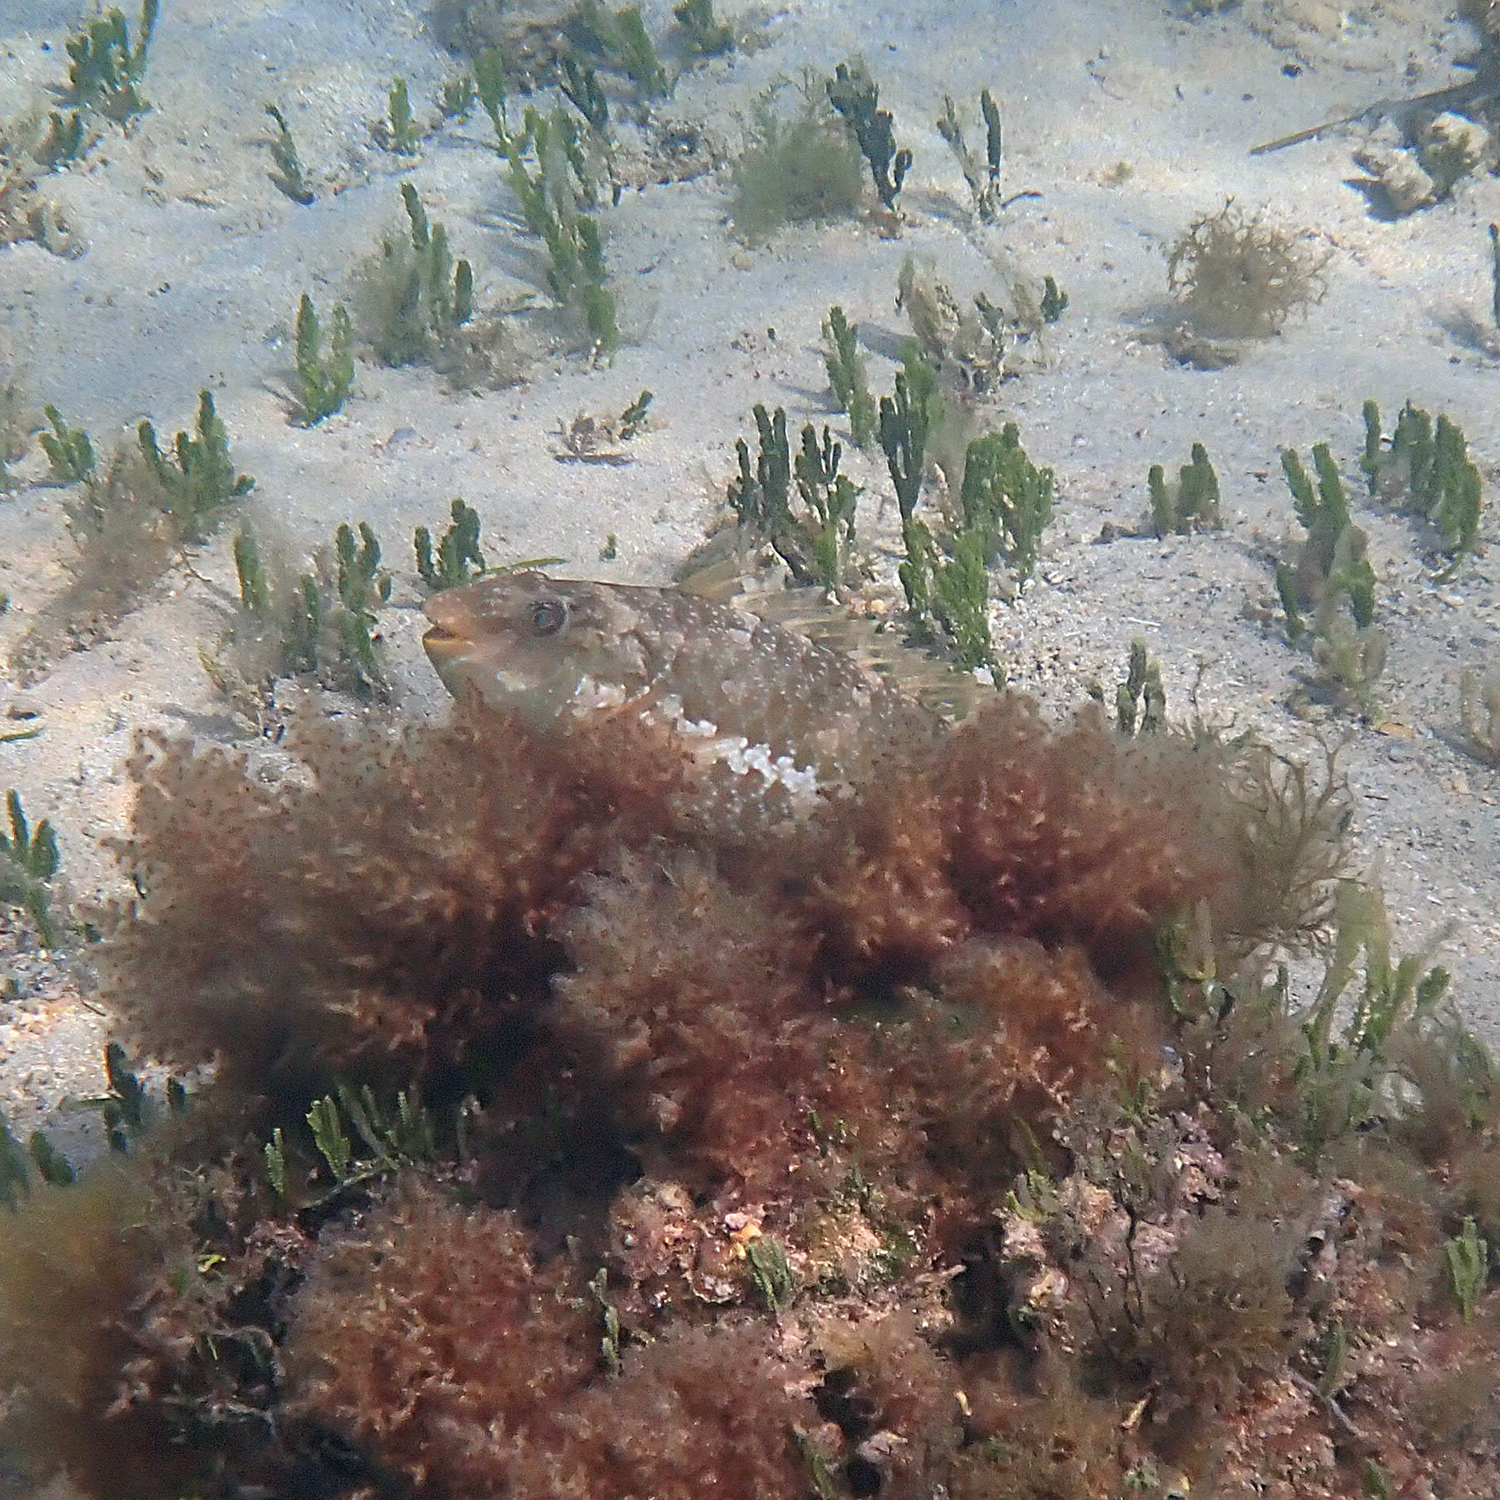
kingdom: Animalia
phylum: Chordata
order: Perciformes
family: Scaridae
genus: Leptoscarus
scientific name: Leptoscarus vaigiensis
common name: Marbled parrotfish
